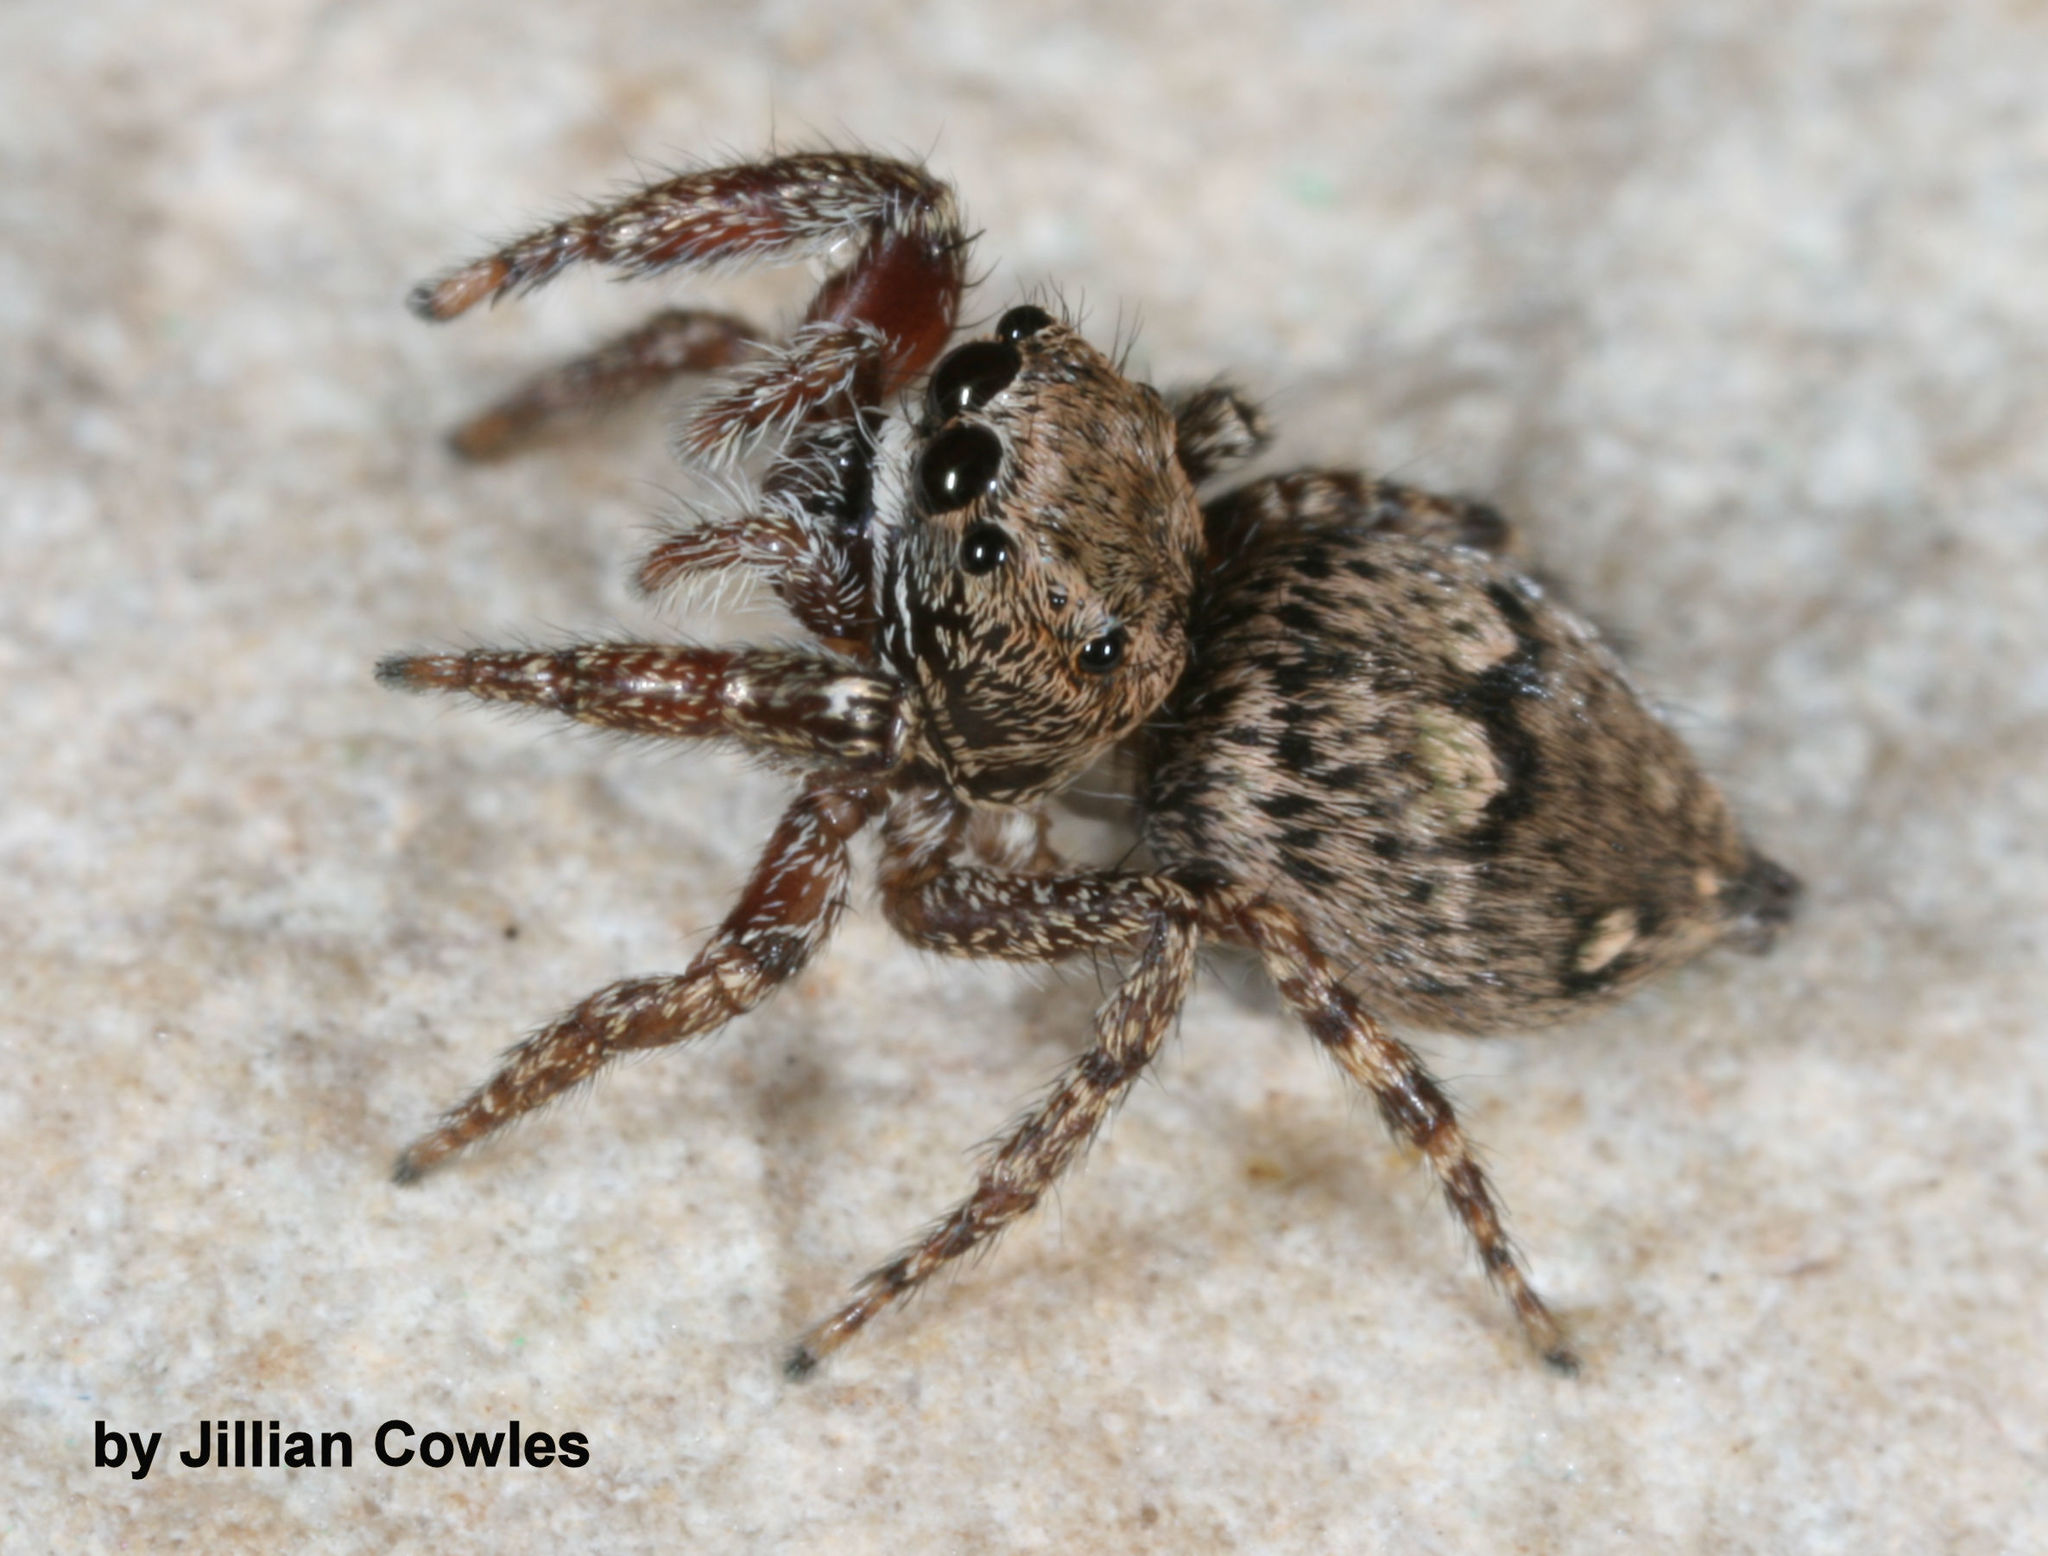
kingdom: Animalia
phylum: Arthropoda
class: Arachnida
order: Araneae
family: Salticidae
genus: Habronattus
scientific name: Habronattus geronimoi
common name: Jumping spiders
